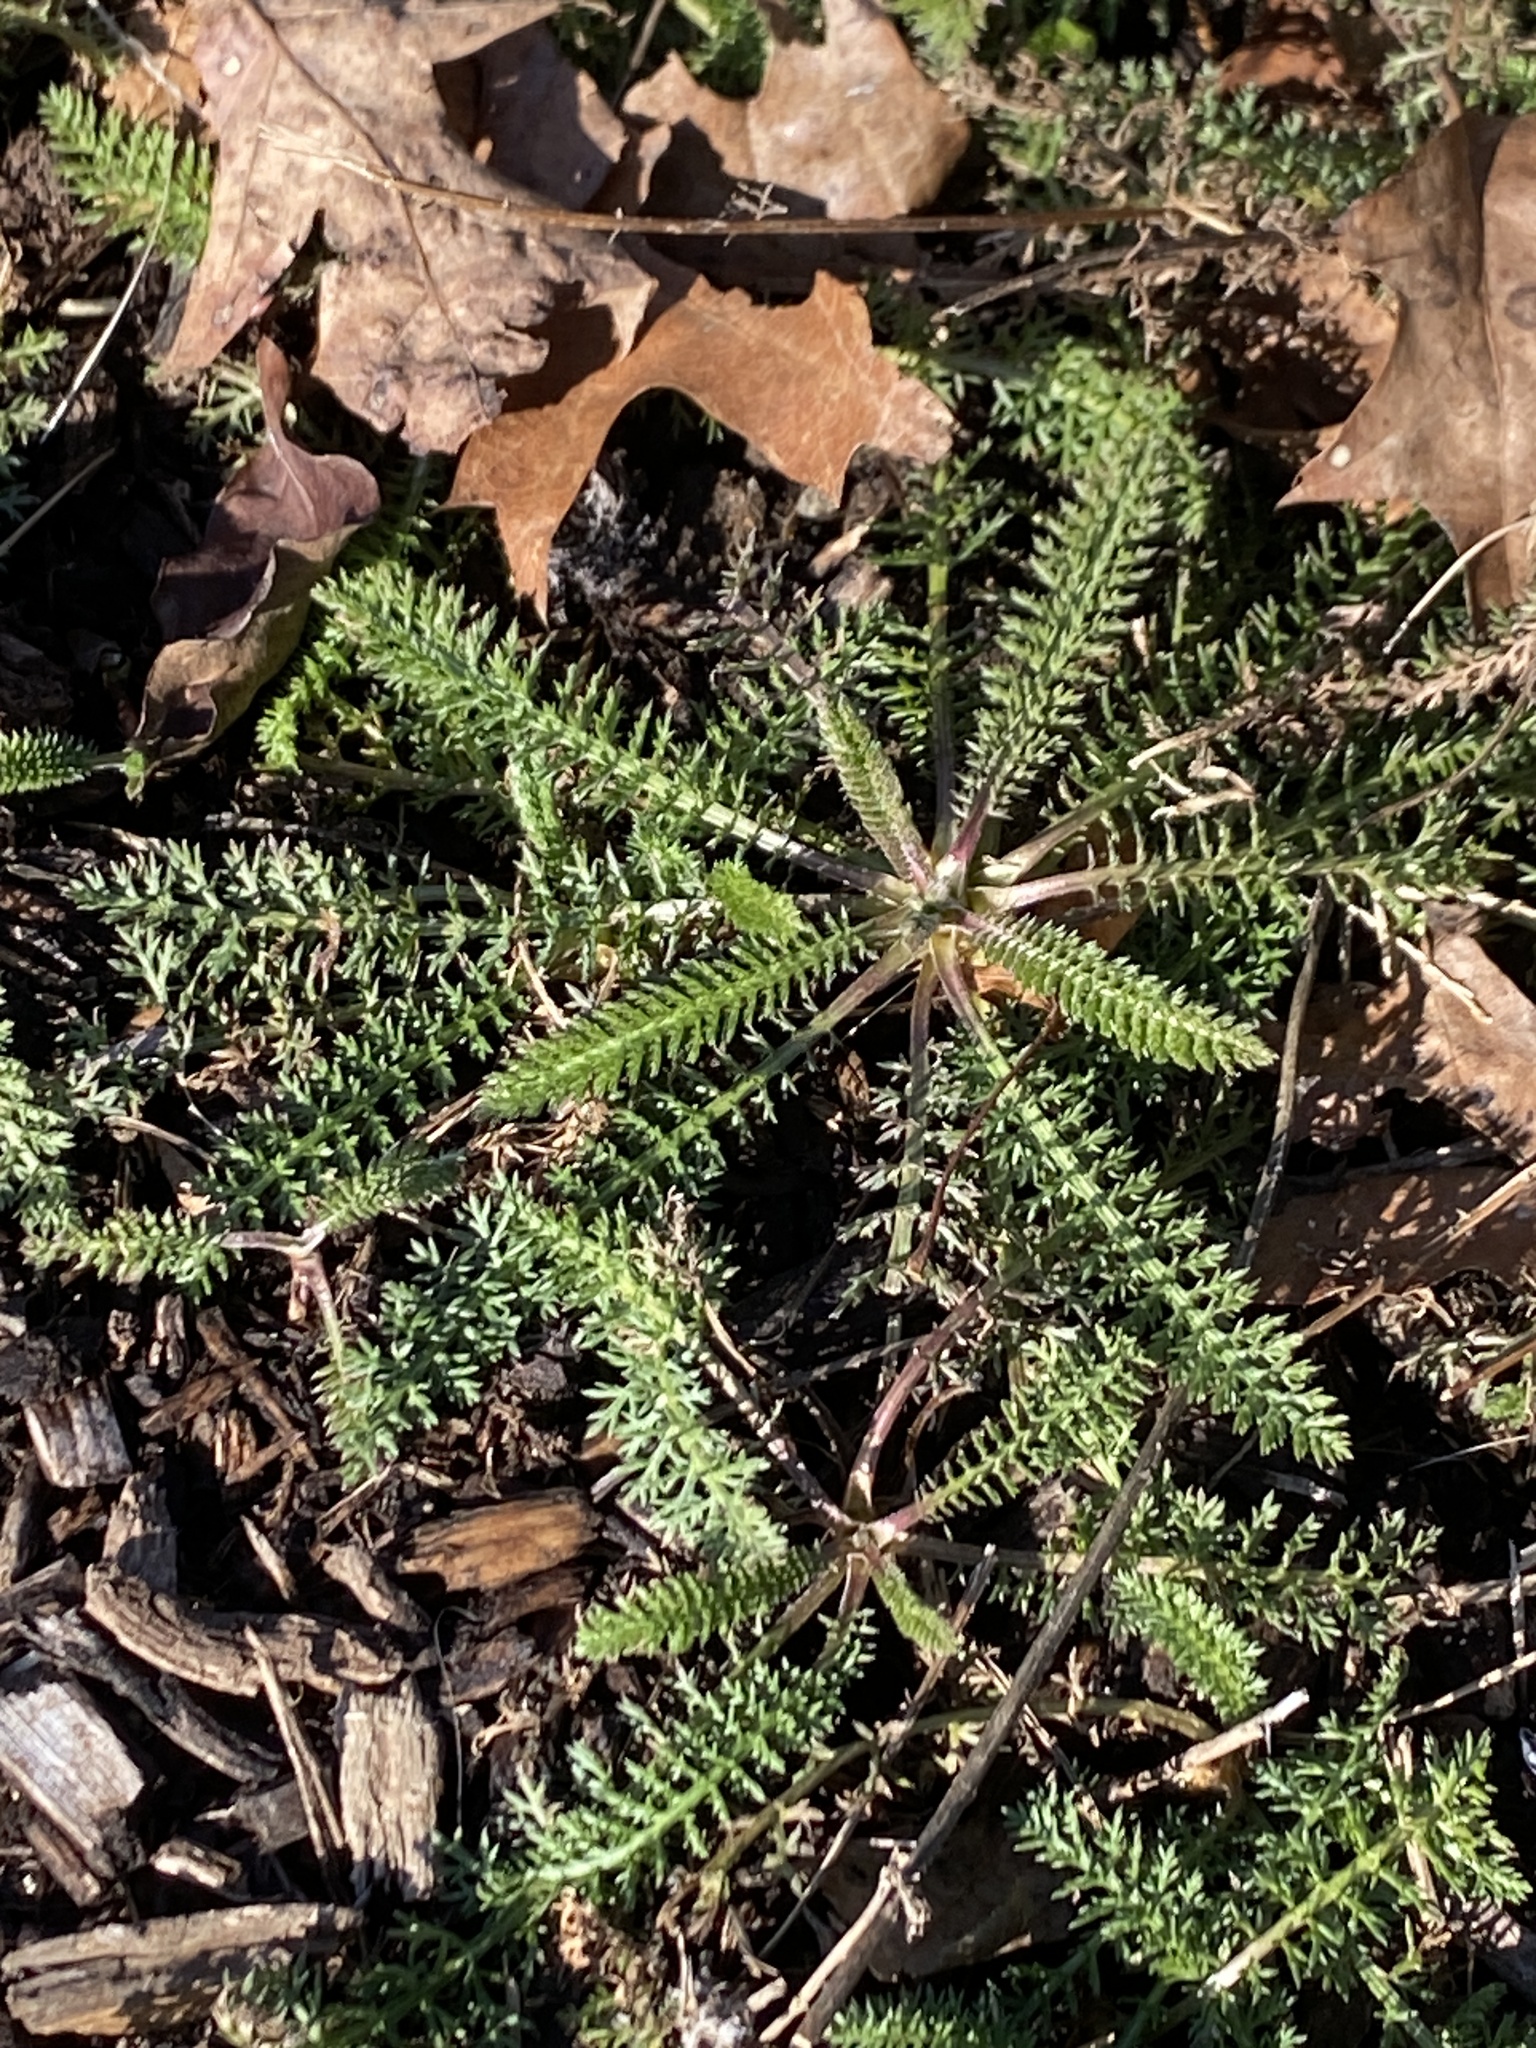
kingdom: Plantae
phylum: Tracheophyta
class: Magnoliopsida
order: Asterales
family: Asteraceae
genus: Achillea
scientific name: Achillea millefolium
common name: Yarrow
